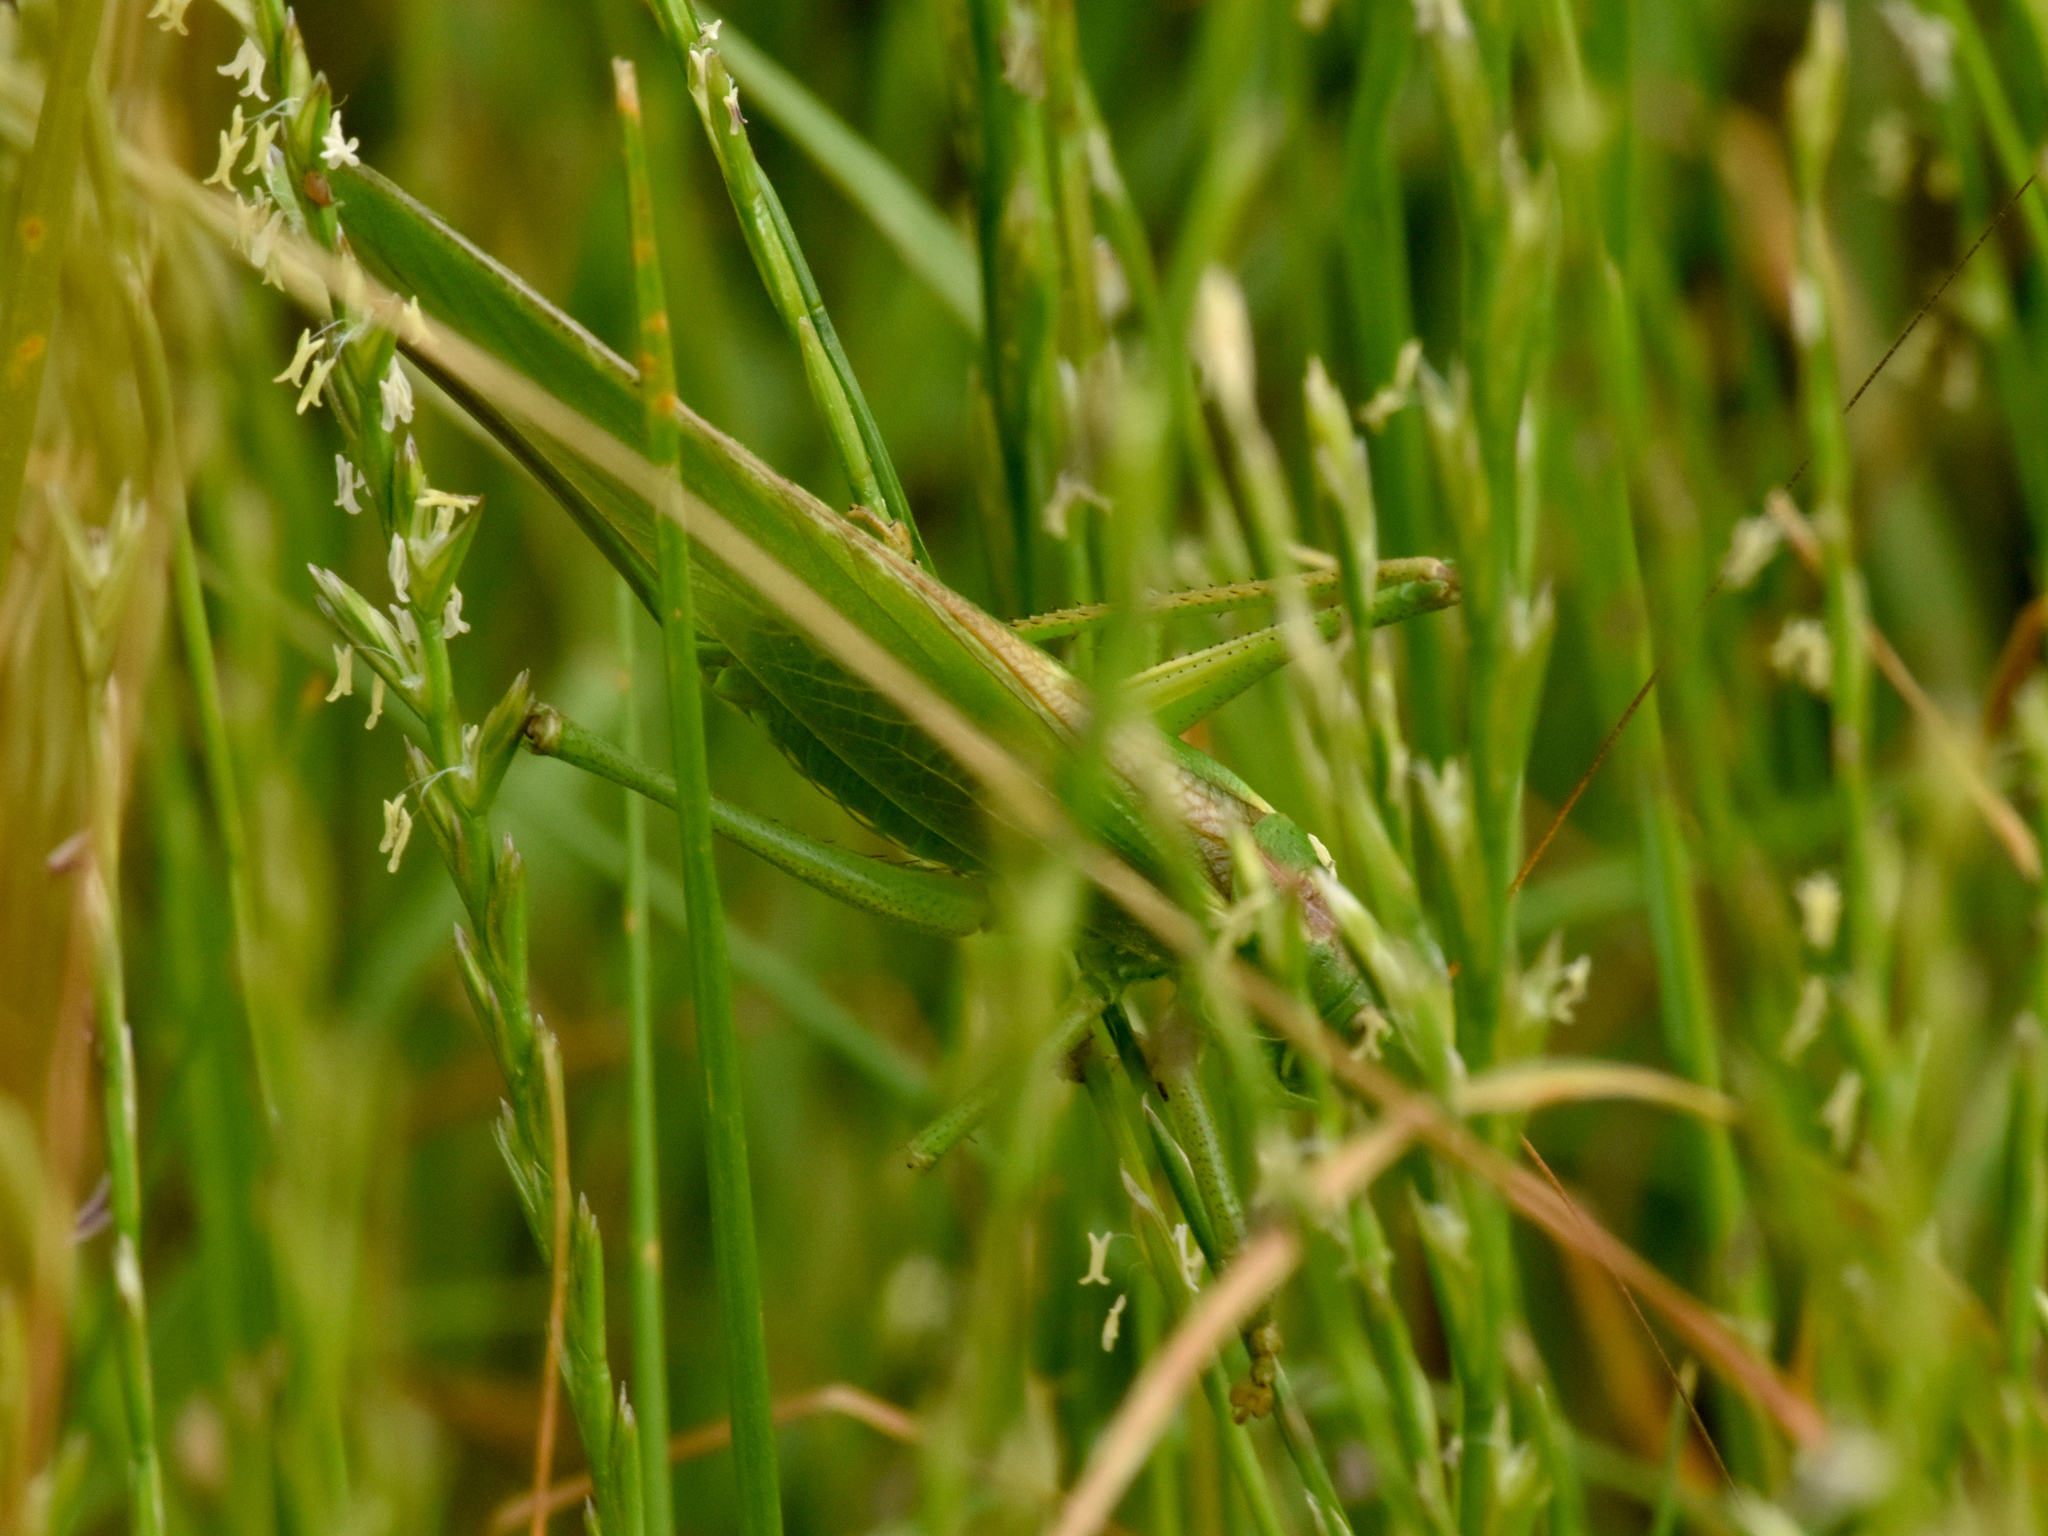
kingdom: Animalia
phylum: Arthropoda
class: Insecta
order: Orthoptera
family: Tettigoniidae
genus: Tettigonia
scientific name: Tettigonia viridissima
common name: Great green bush-cricket
